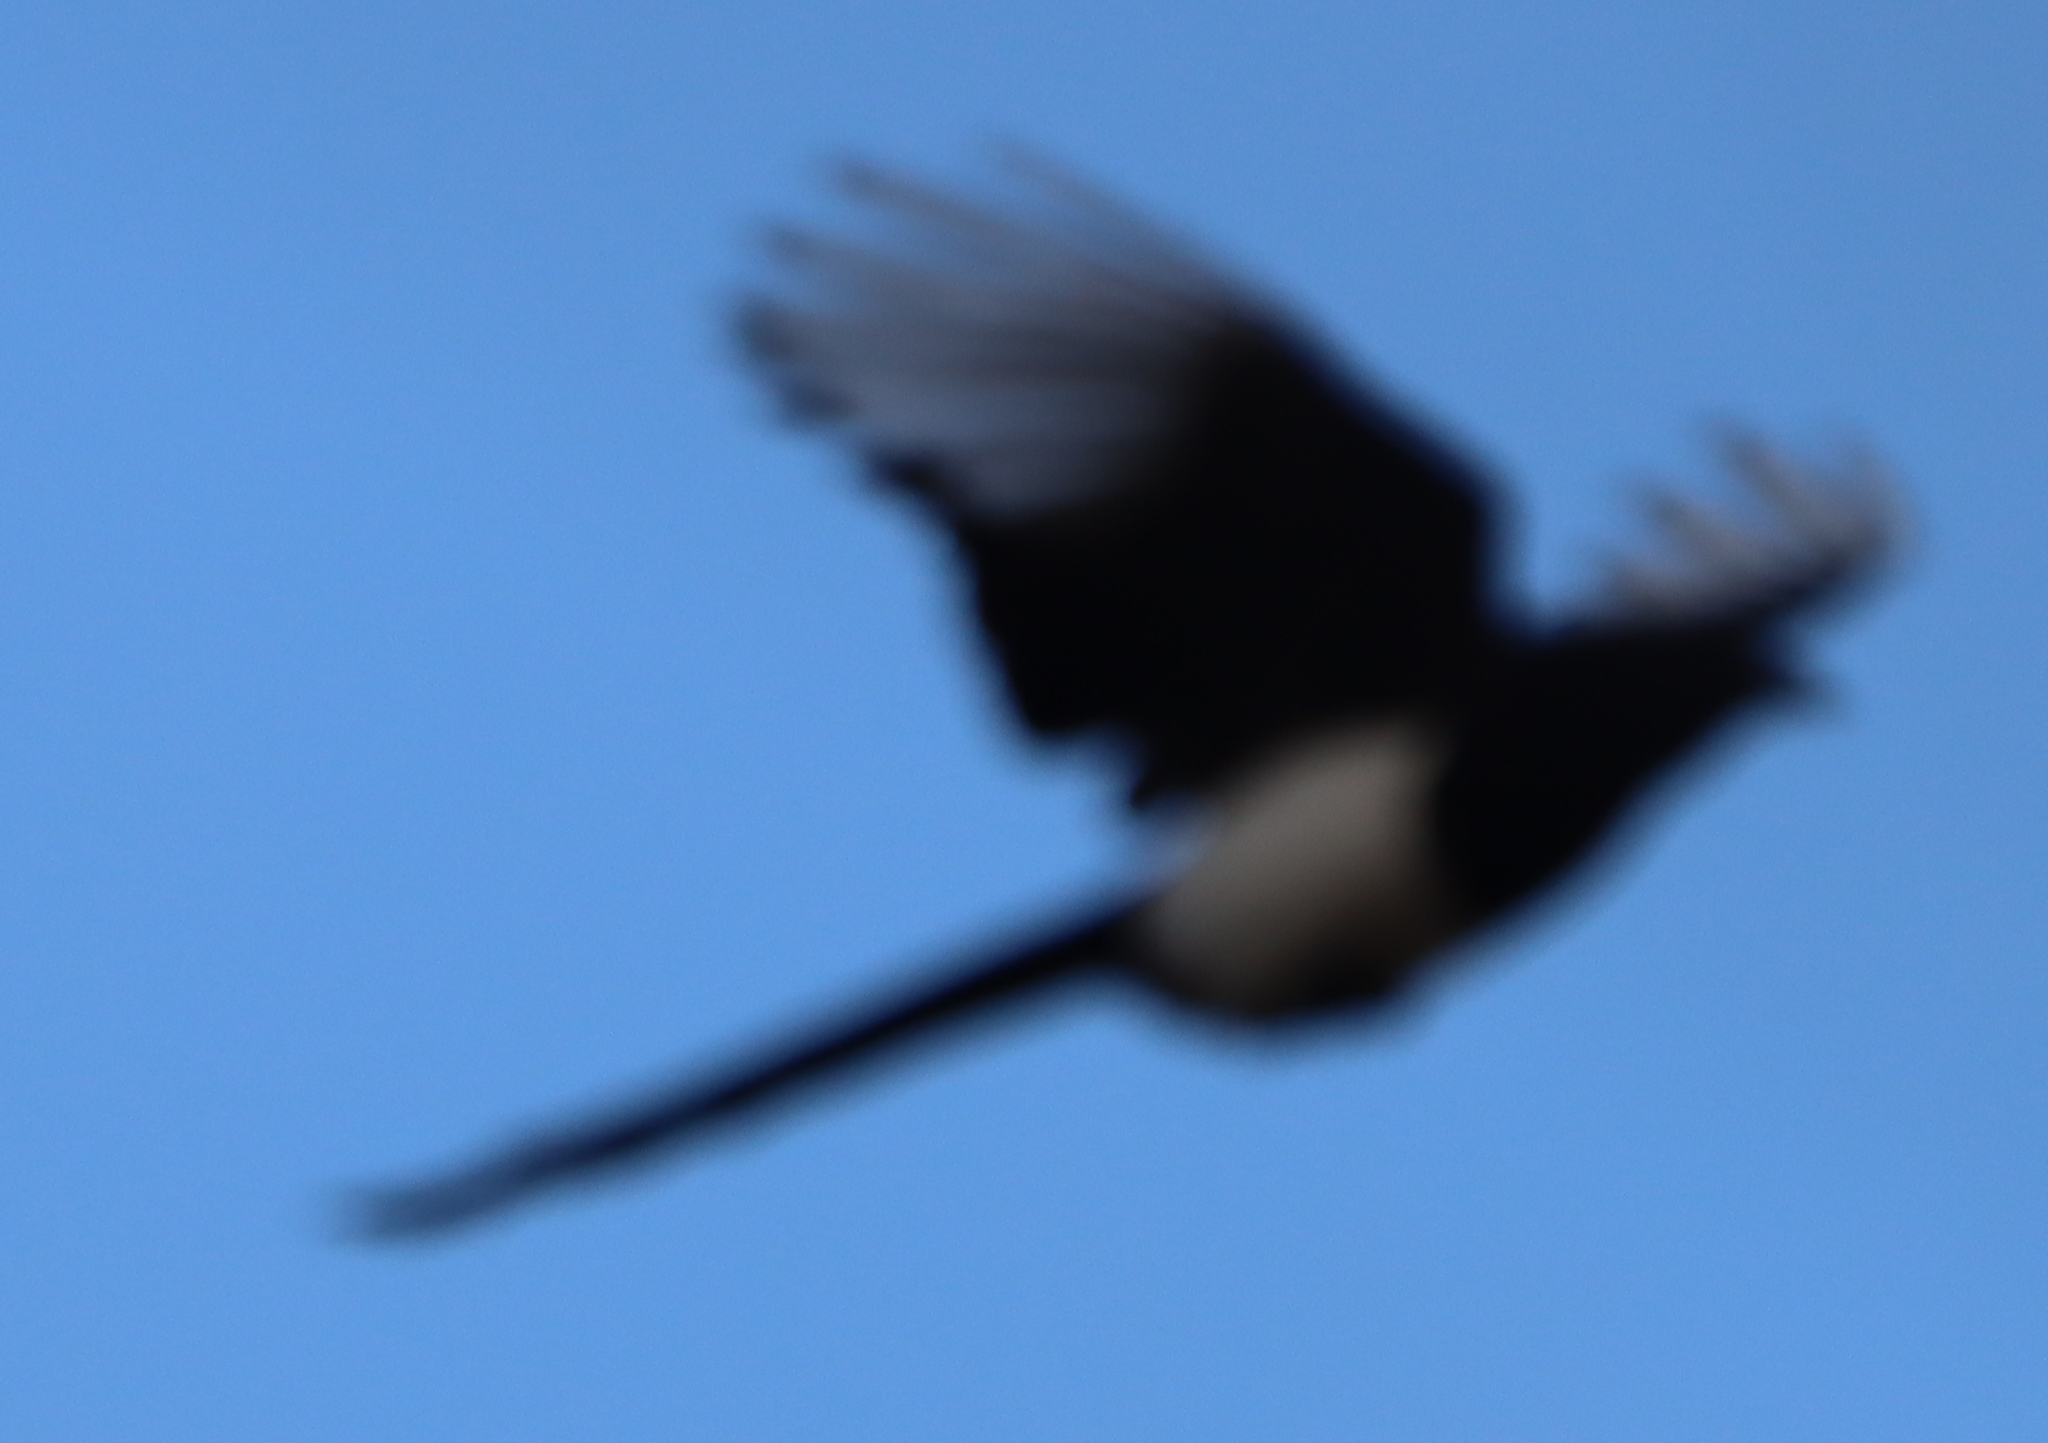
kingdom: Animalia
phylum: Chordata
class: Aves
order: Passeriformes
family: Corvidae
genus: Pica
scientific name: Pica hudsonia
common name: Black-billed magpie
